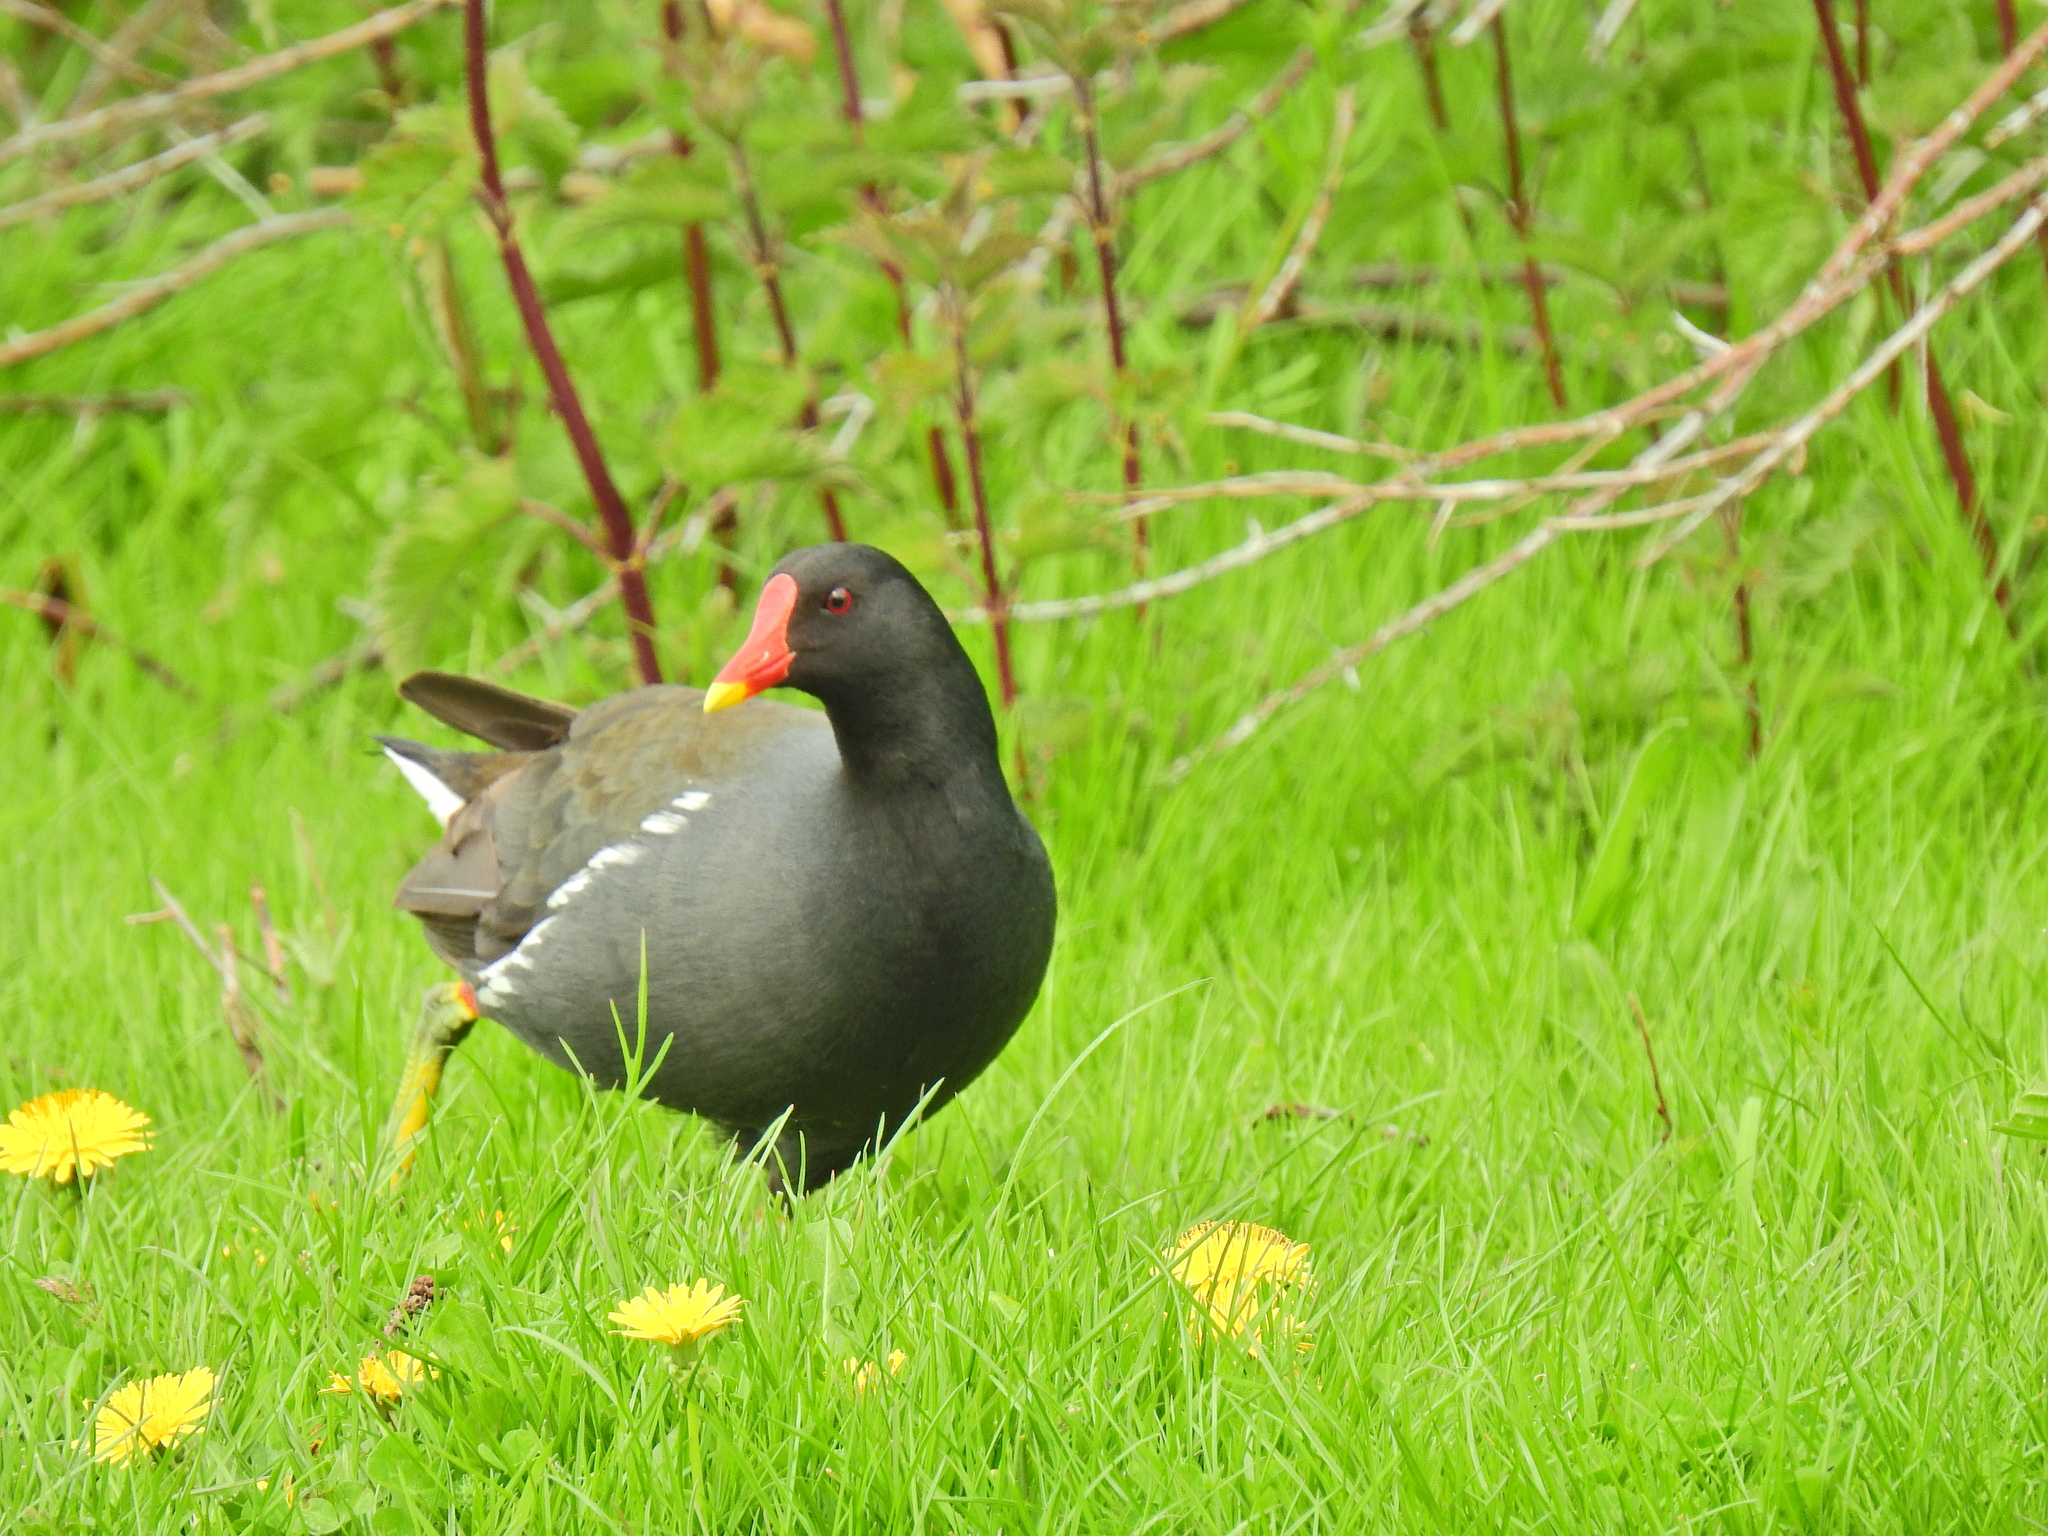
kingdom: Animalia
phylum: Chordata
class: Aves
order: Gruiformes
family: Rallidae
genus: Gallinula
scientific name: Gallinula chloropus
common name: Common moorhen
